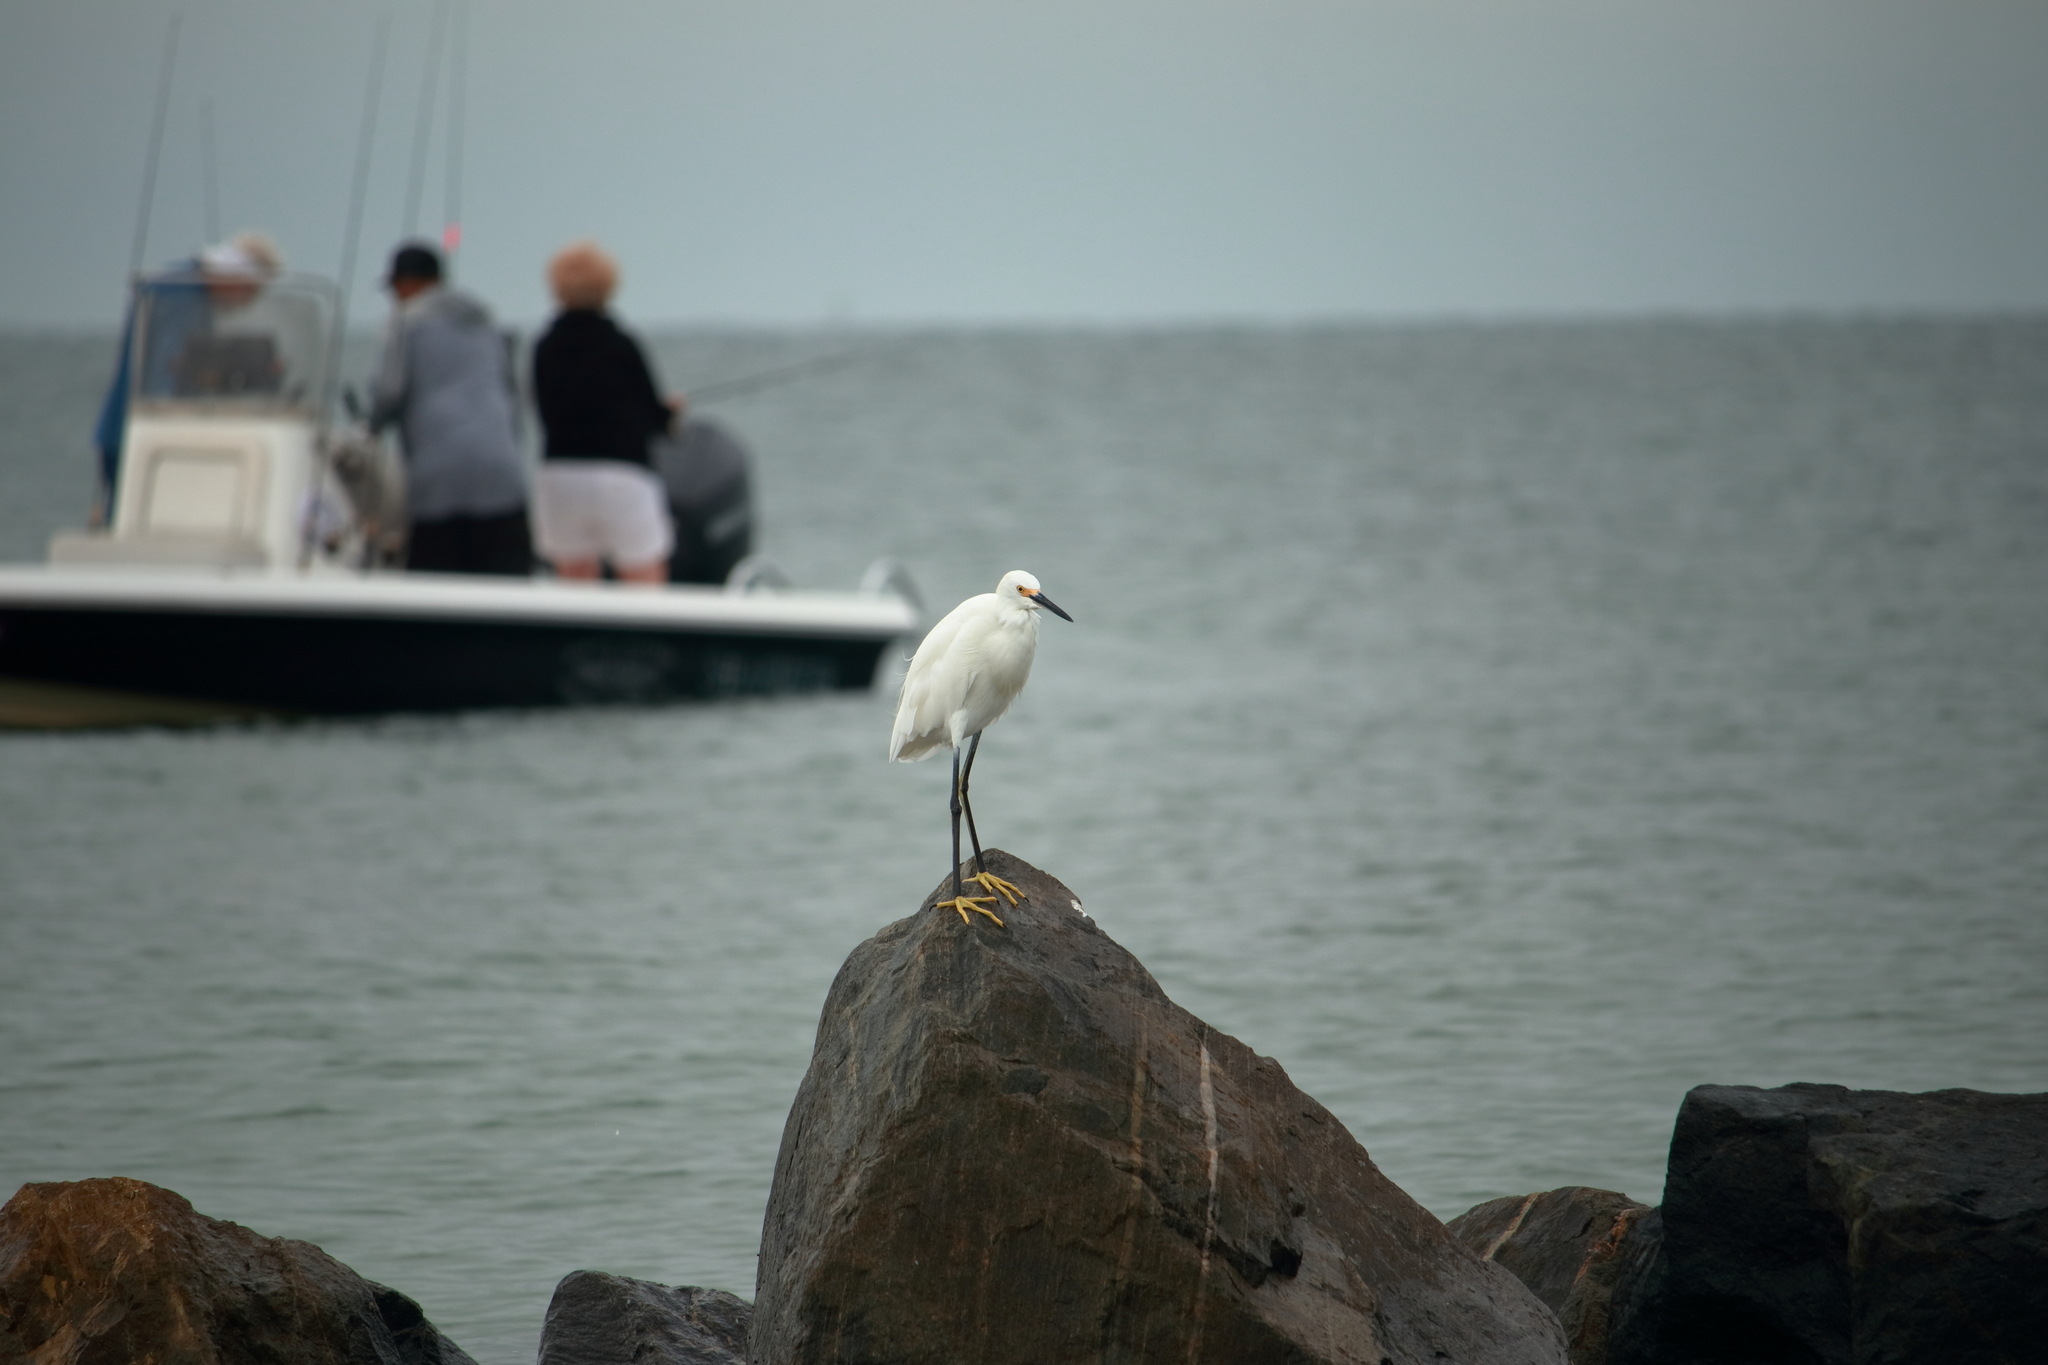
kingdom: Animalia
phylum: Chordata
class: Aves
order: Pelecaniformes
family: Ardeidae
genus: Egretta
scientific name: Egretta thula
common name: Snowy egret
